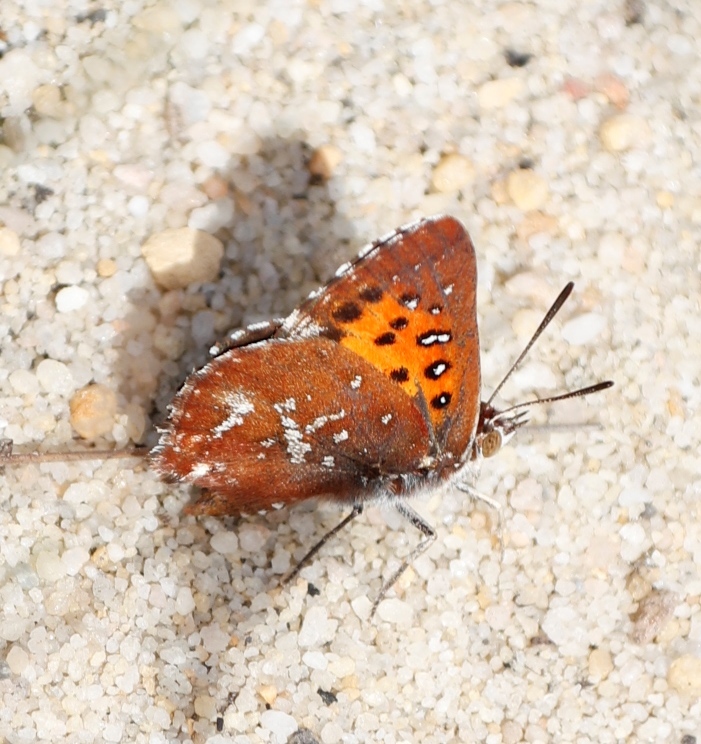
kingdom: Animalia
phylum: Arthropoda
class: Insecta
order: Lepidoptera
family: Lycaenidae
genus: Aloeides
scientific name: Aloeides thyra
